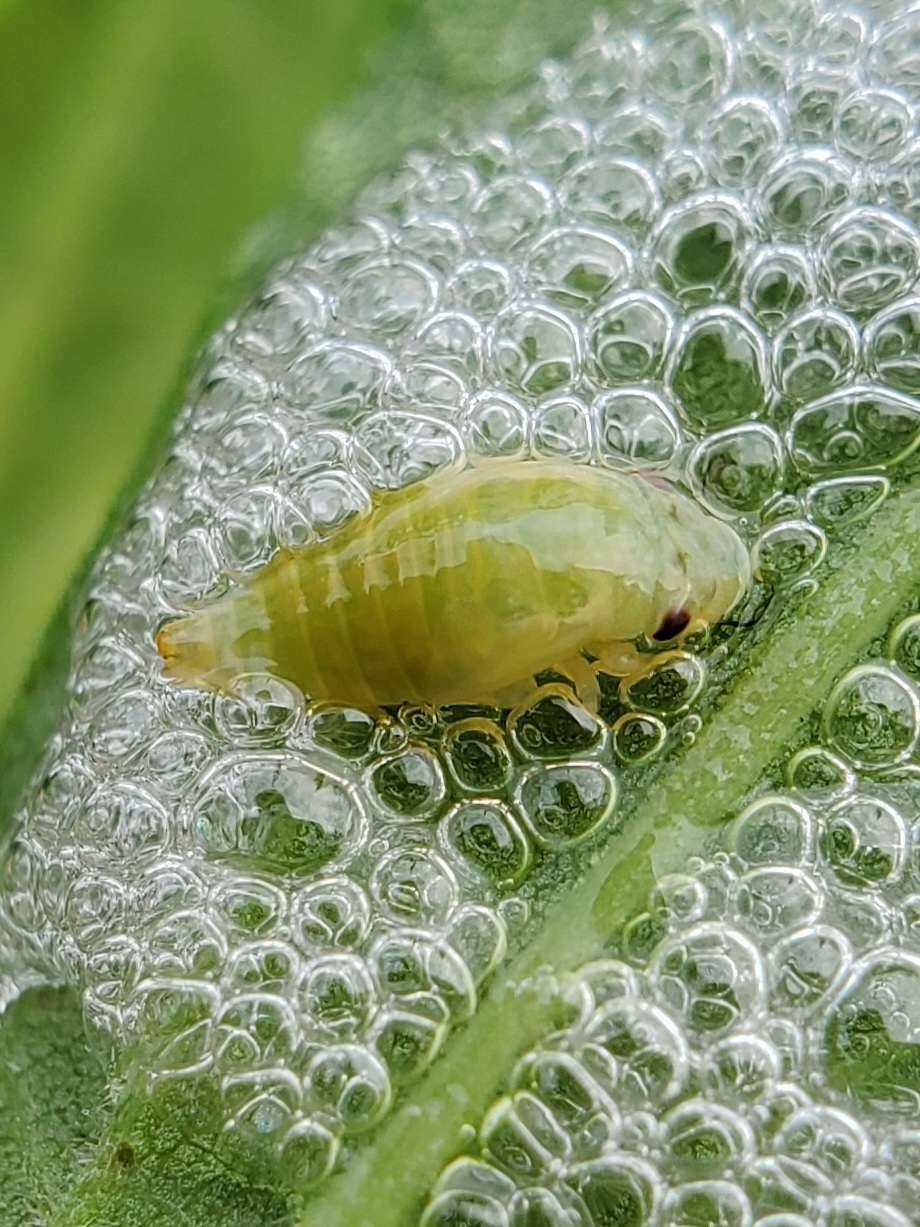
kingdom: Animalia
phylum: Arthropoda
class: Insecta
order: Hemiptera
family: Aphrophoridae
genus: Philaenus
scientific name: Philaenus spumarius
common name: Meadow spittlebug
